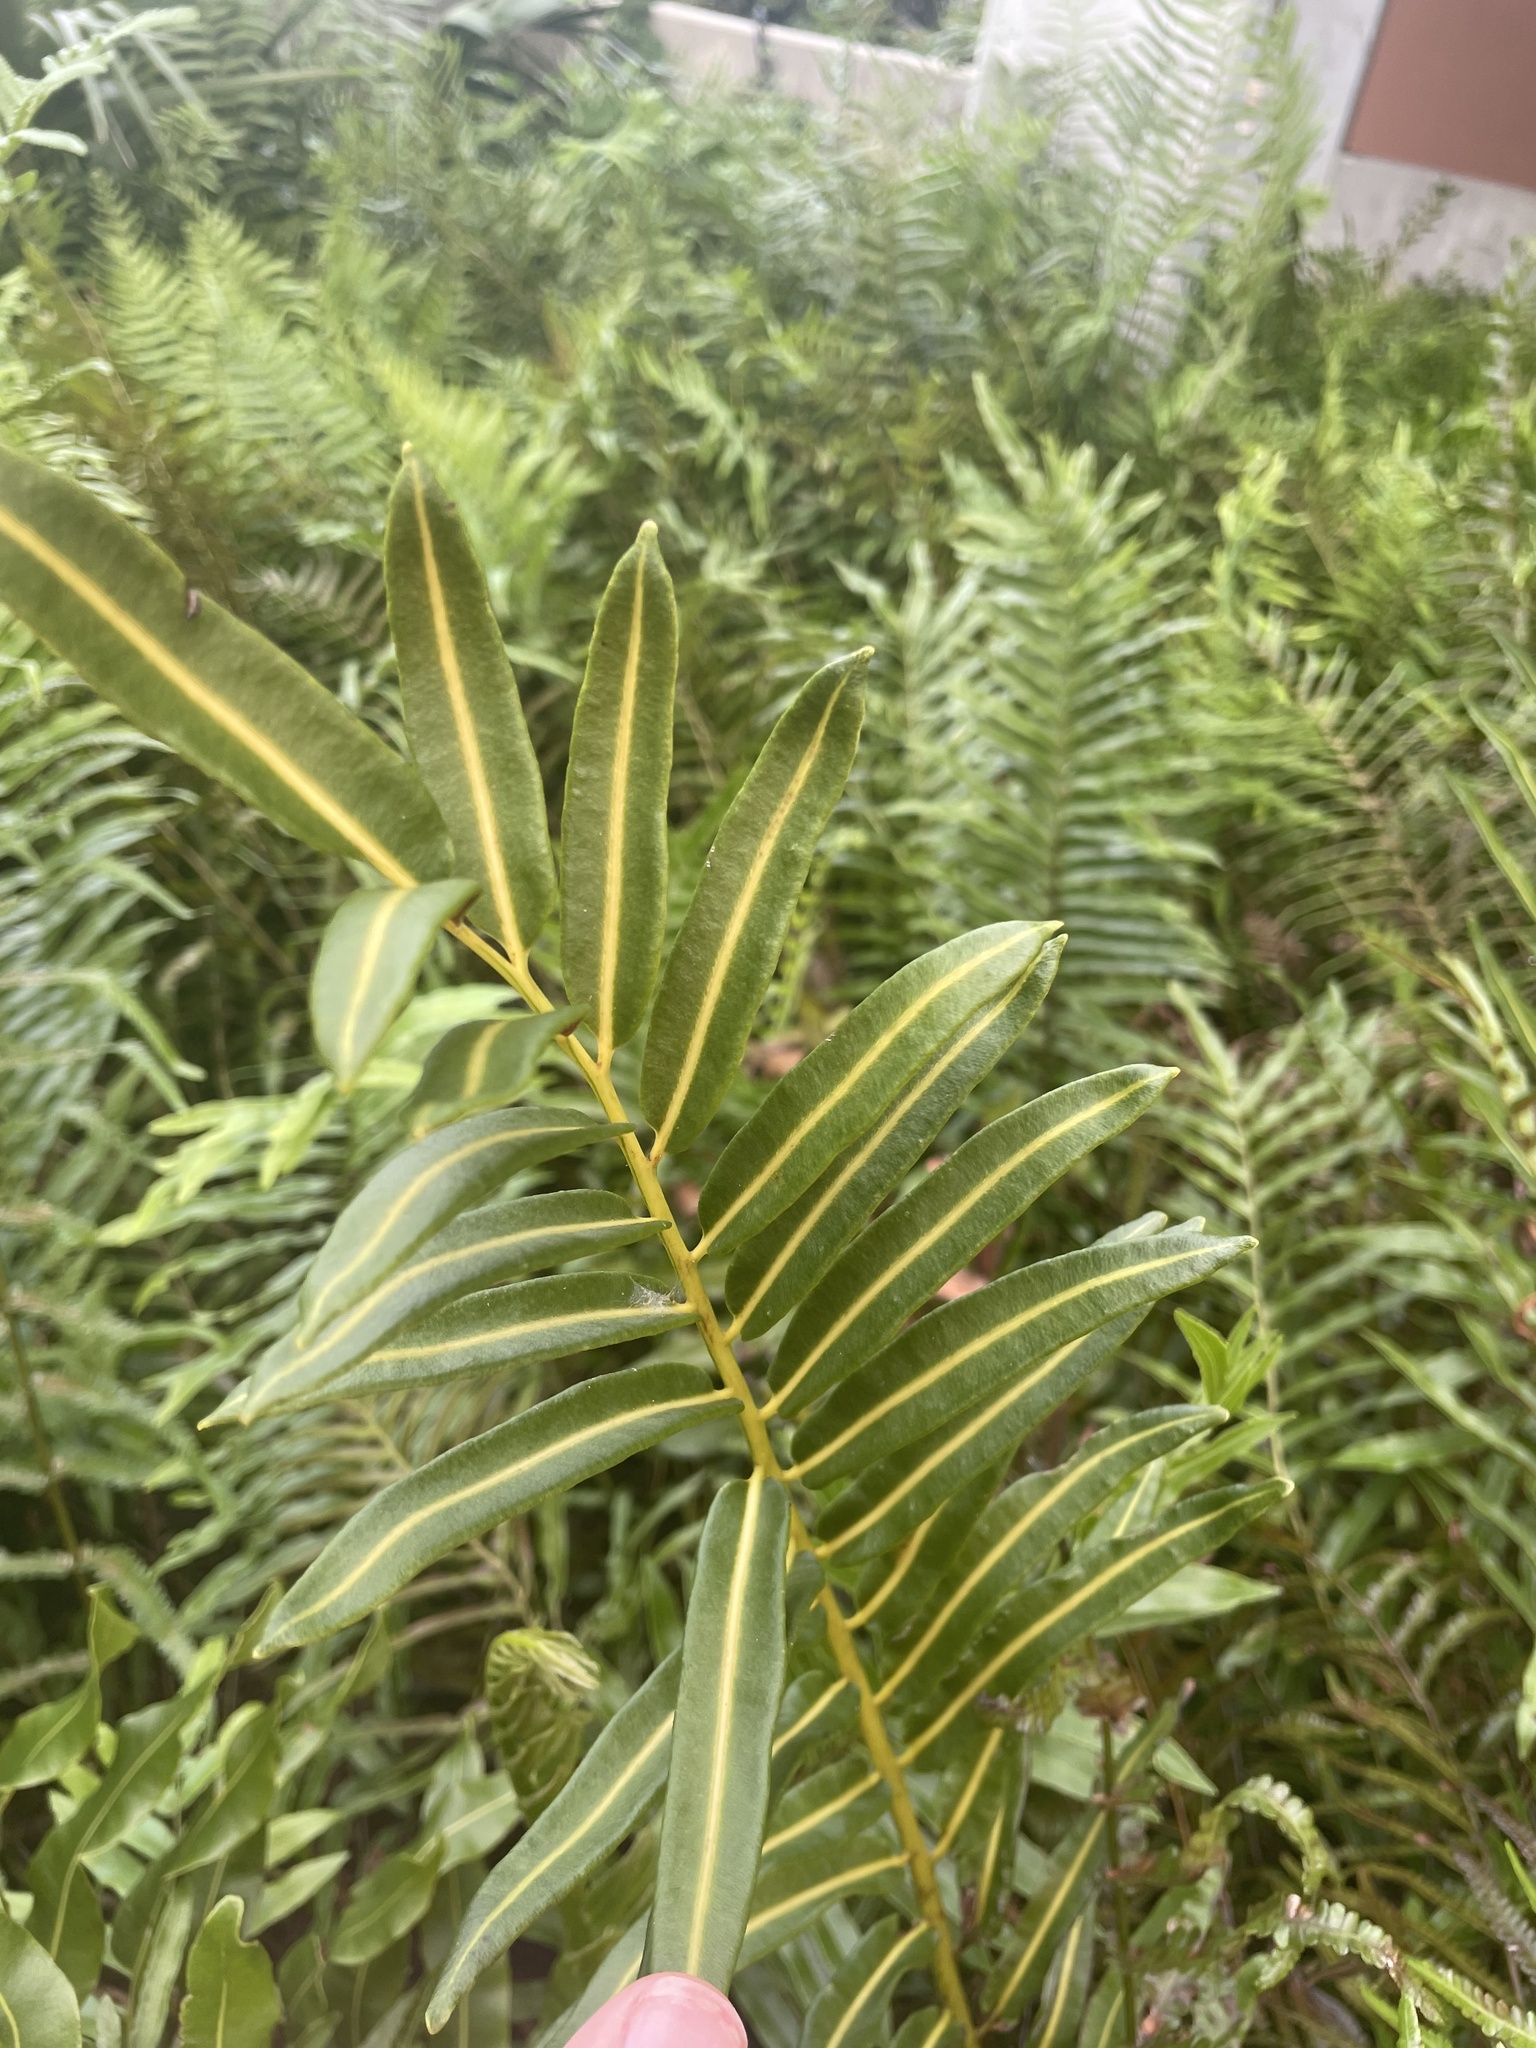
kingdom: Plantae
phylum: Tracheophyta
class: Polypodiopsida
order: Polypodiales
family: Pteridaceae
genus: Acrostichum
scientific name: Acrostichum danaeifolium
